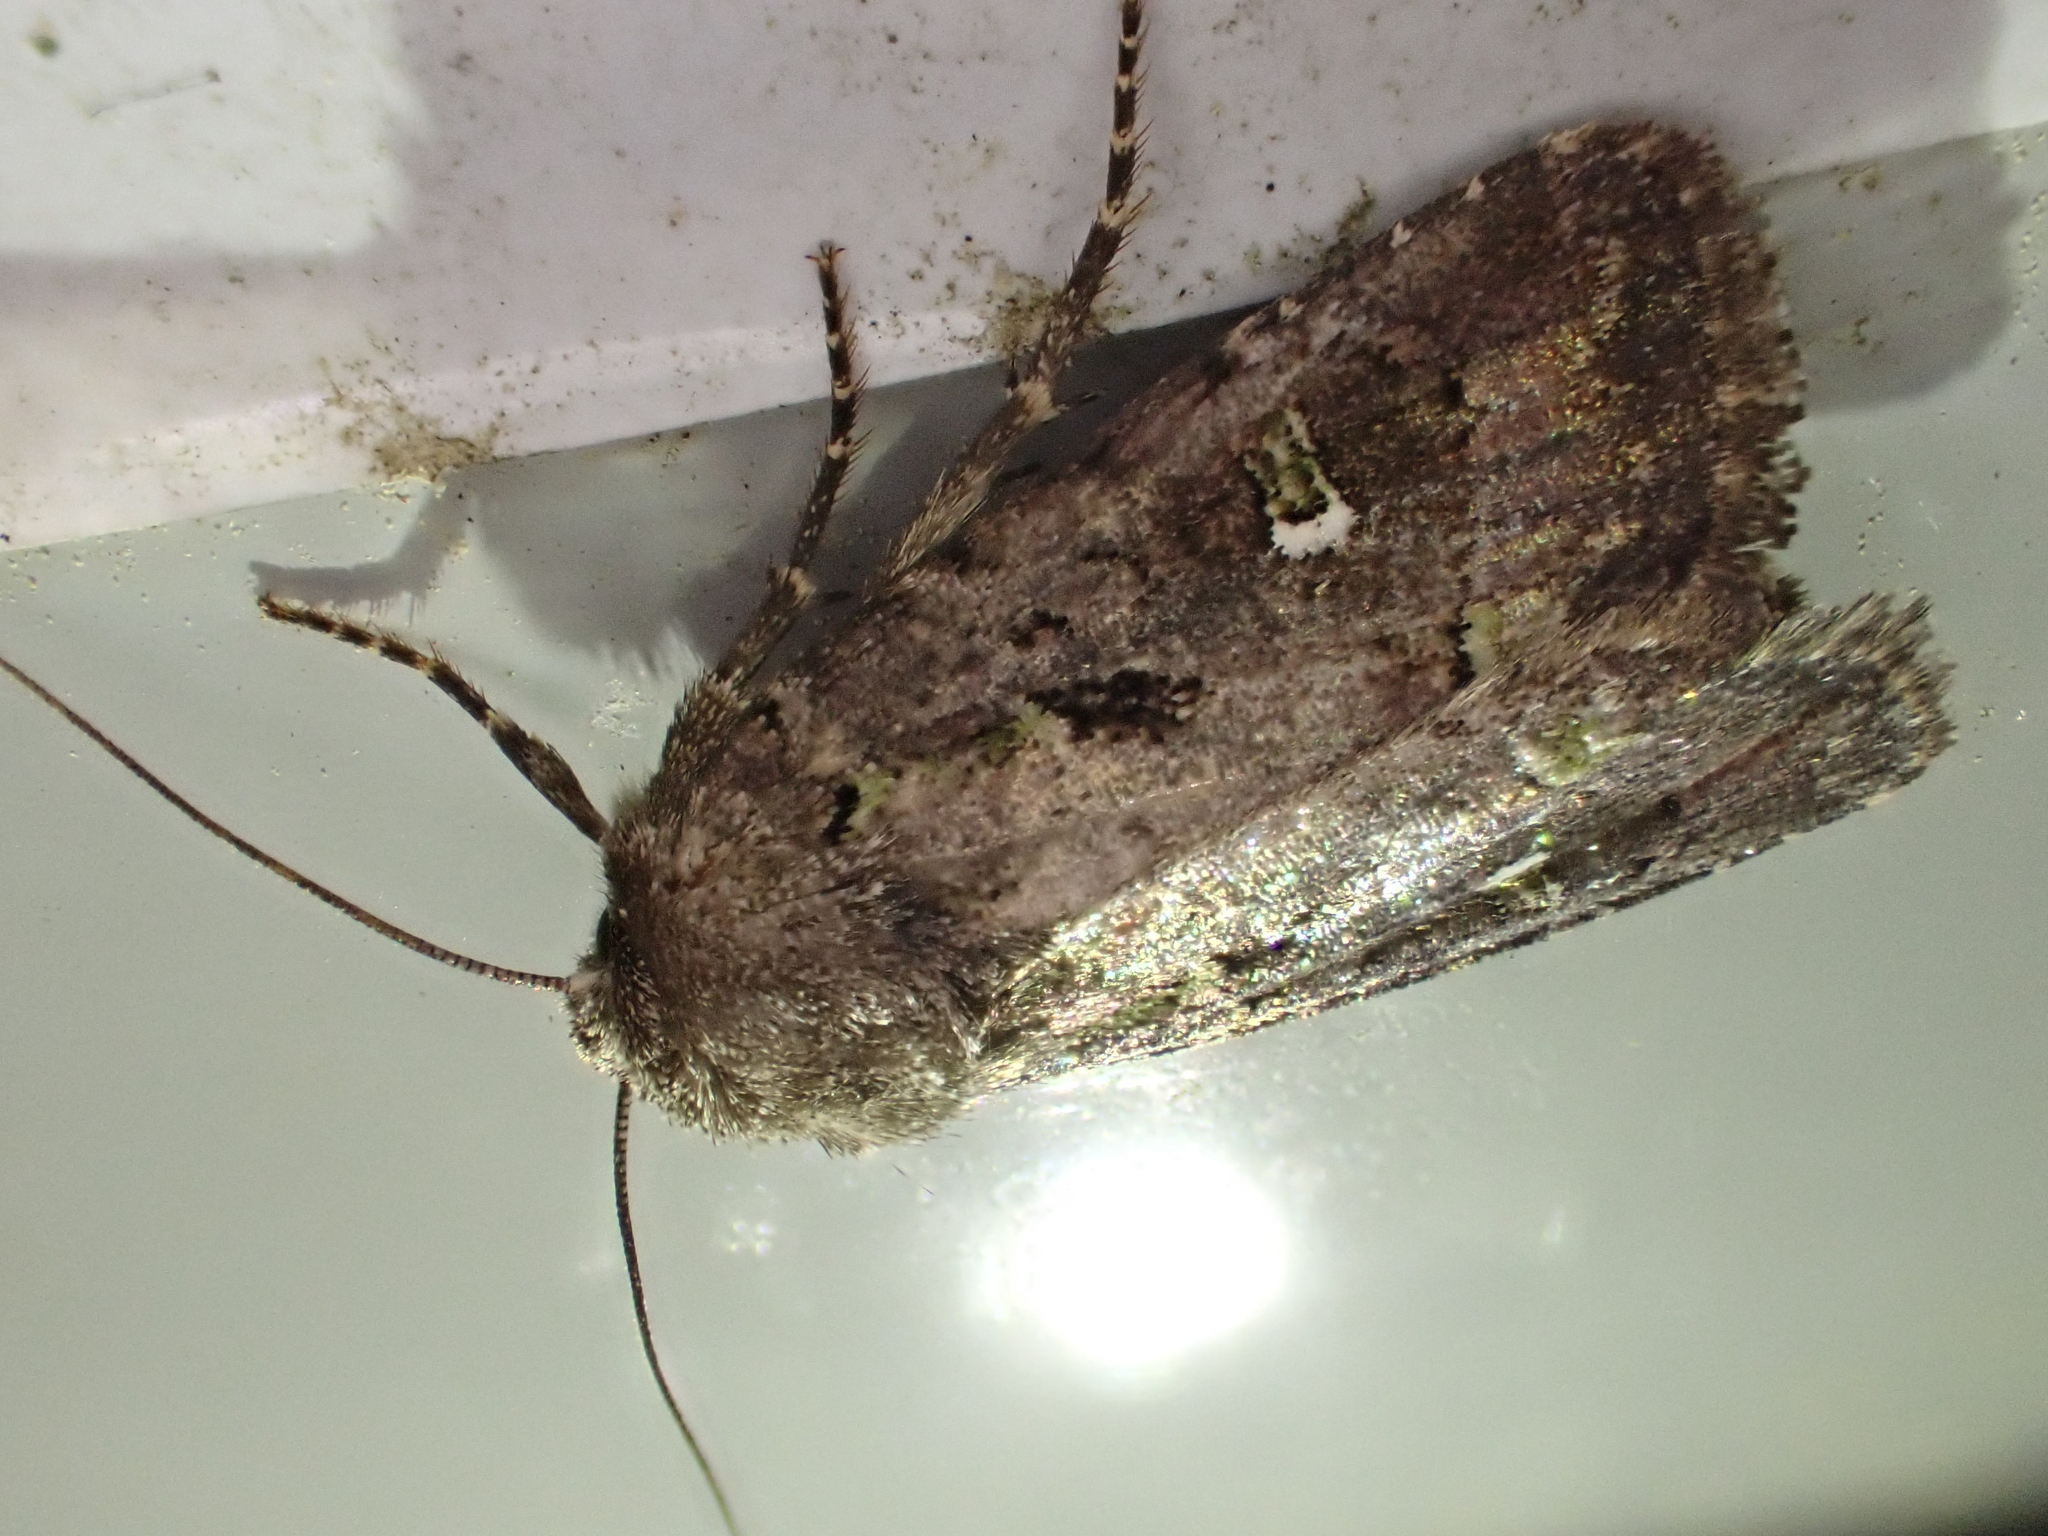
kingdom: Animalia
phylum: Arthropoda
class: Insecta
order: Lepidoptera
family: Noctuidae
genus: Lacinipolia
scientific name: Lacinipolia renigera
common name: Kidney-spotted minor
